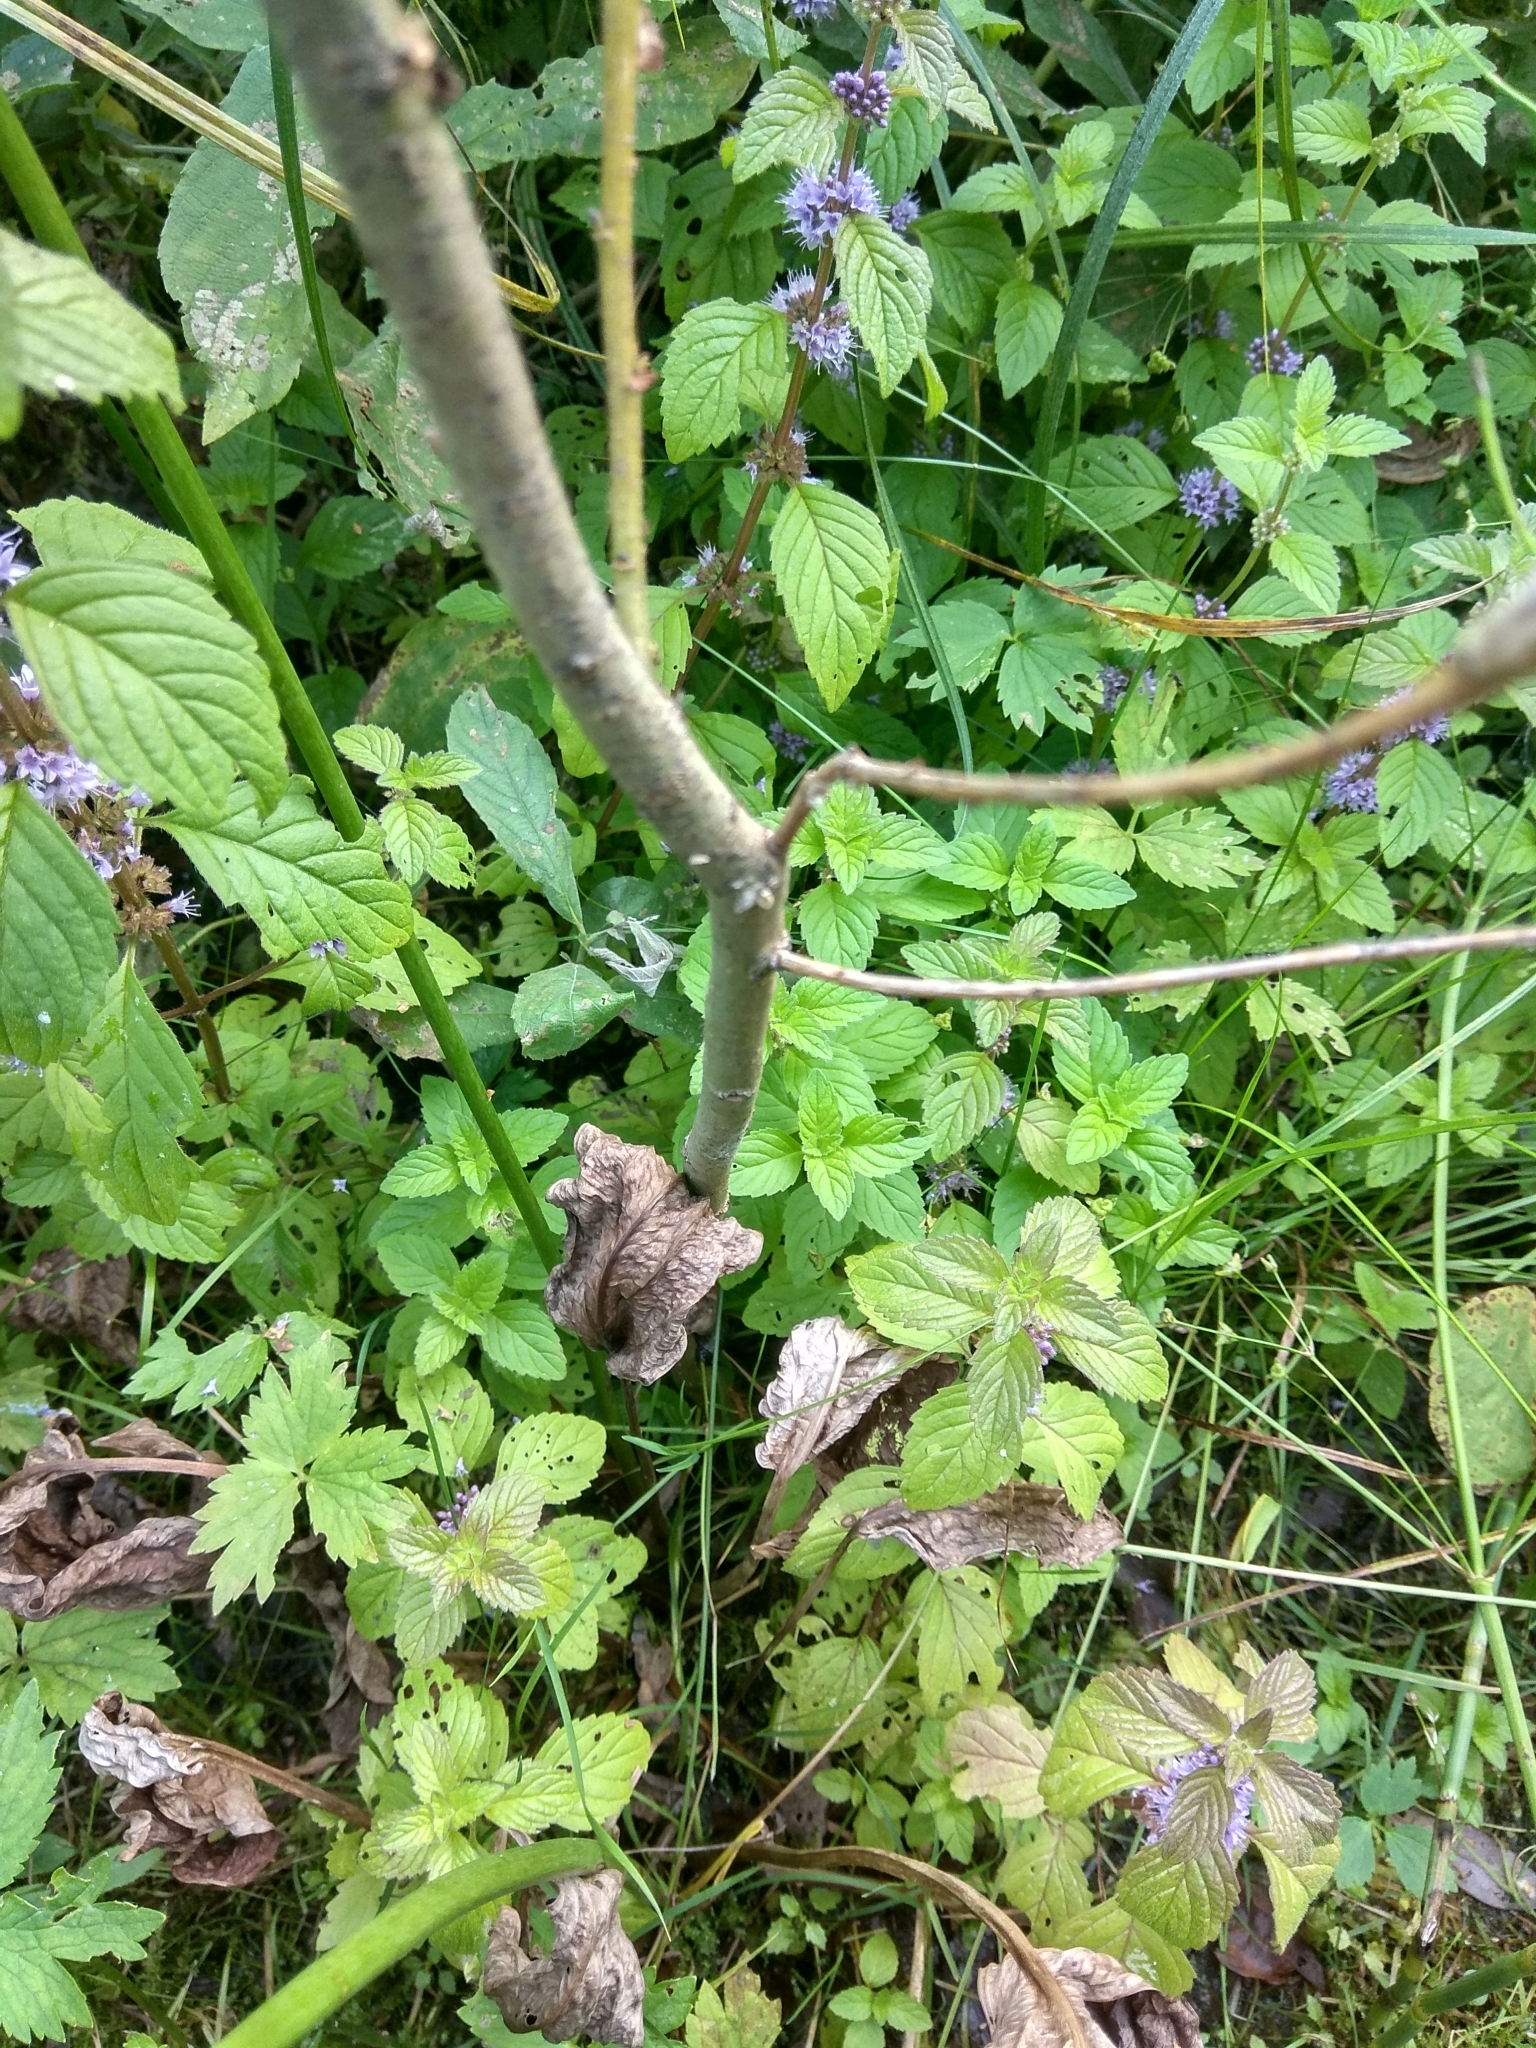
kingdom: Plantae
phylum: Tracheophyta
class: Magnoliopsida
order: Lamiales
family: Lamiaceae
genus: Mentha
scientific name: Mentha arvensis
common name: Corn mint
